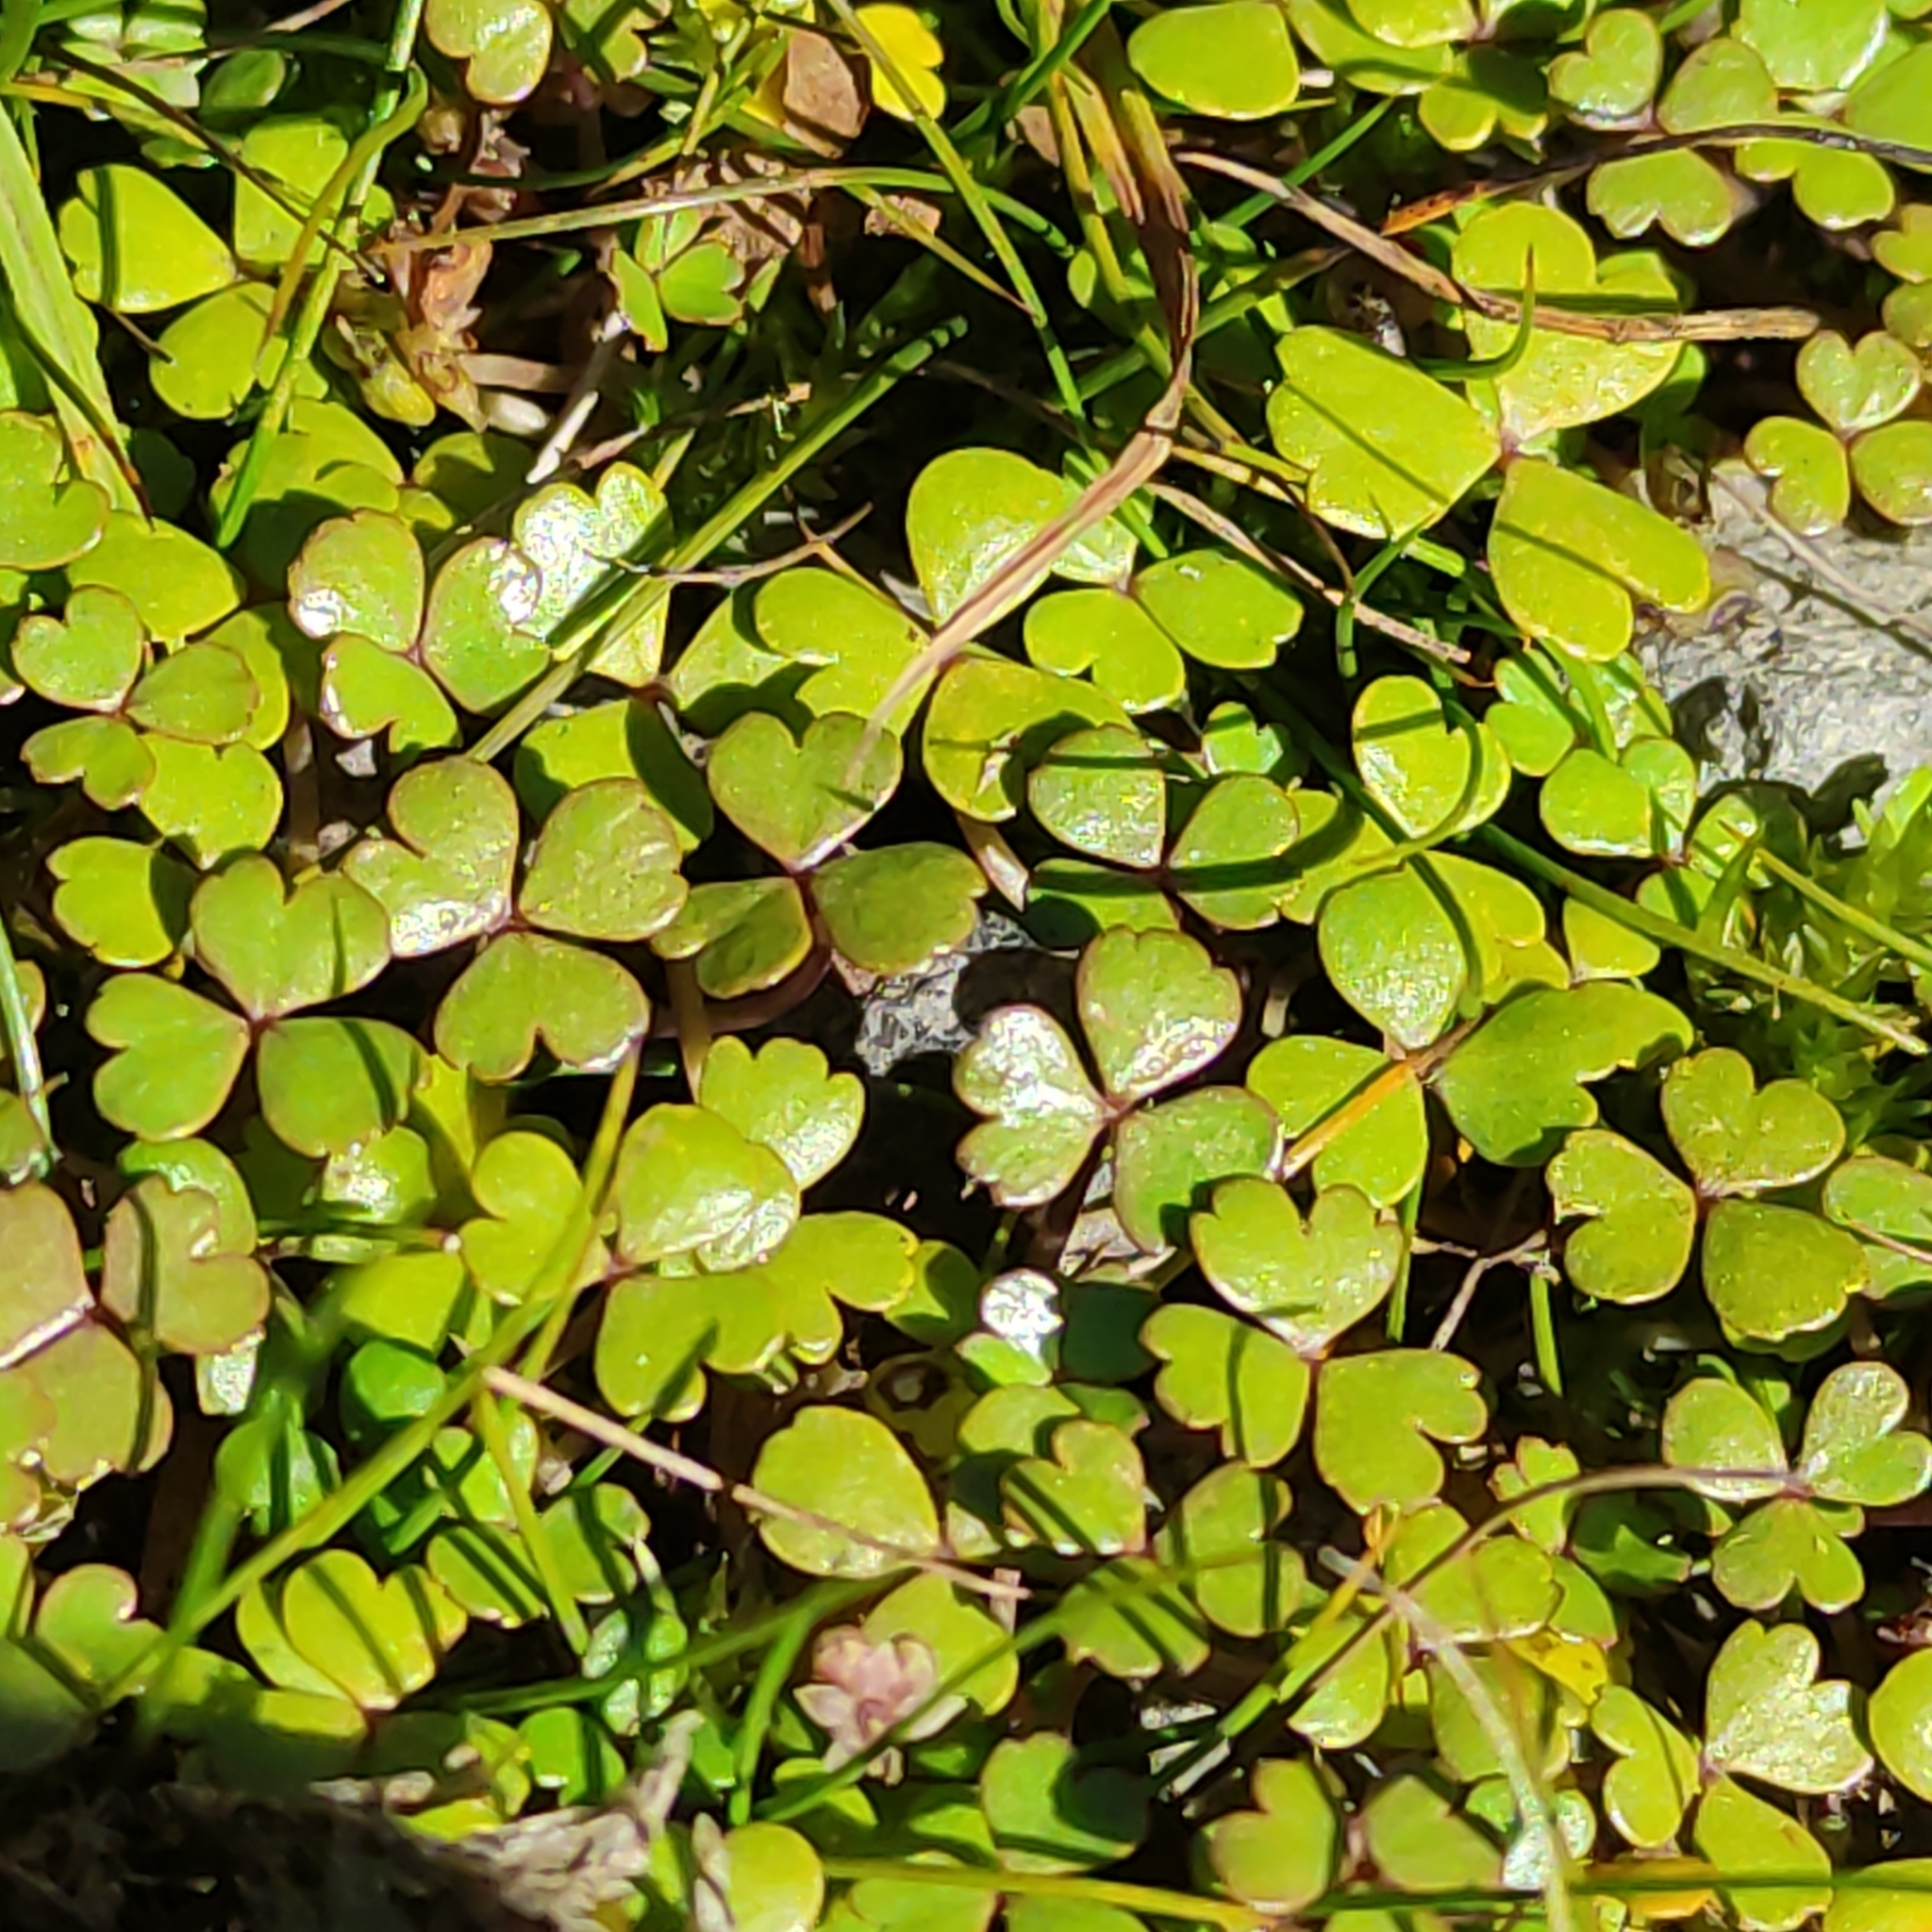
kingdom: Plantae
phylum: Tracheophyta
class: Magnoliopsida
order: Apiales
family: Araliaceae
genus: Hydrocotyle
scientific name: Hydrocotyle sulcata
